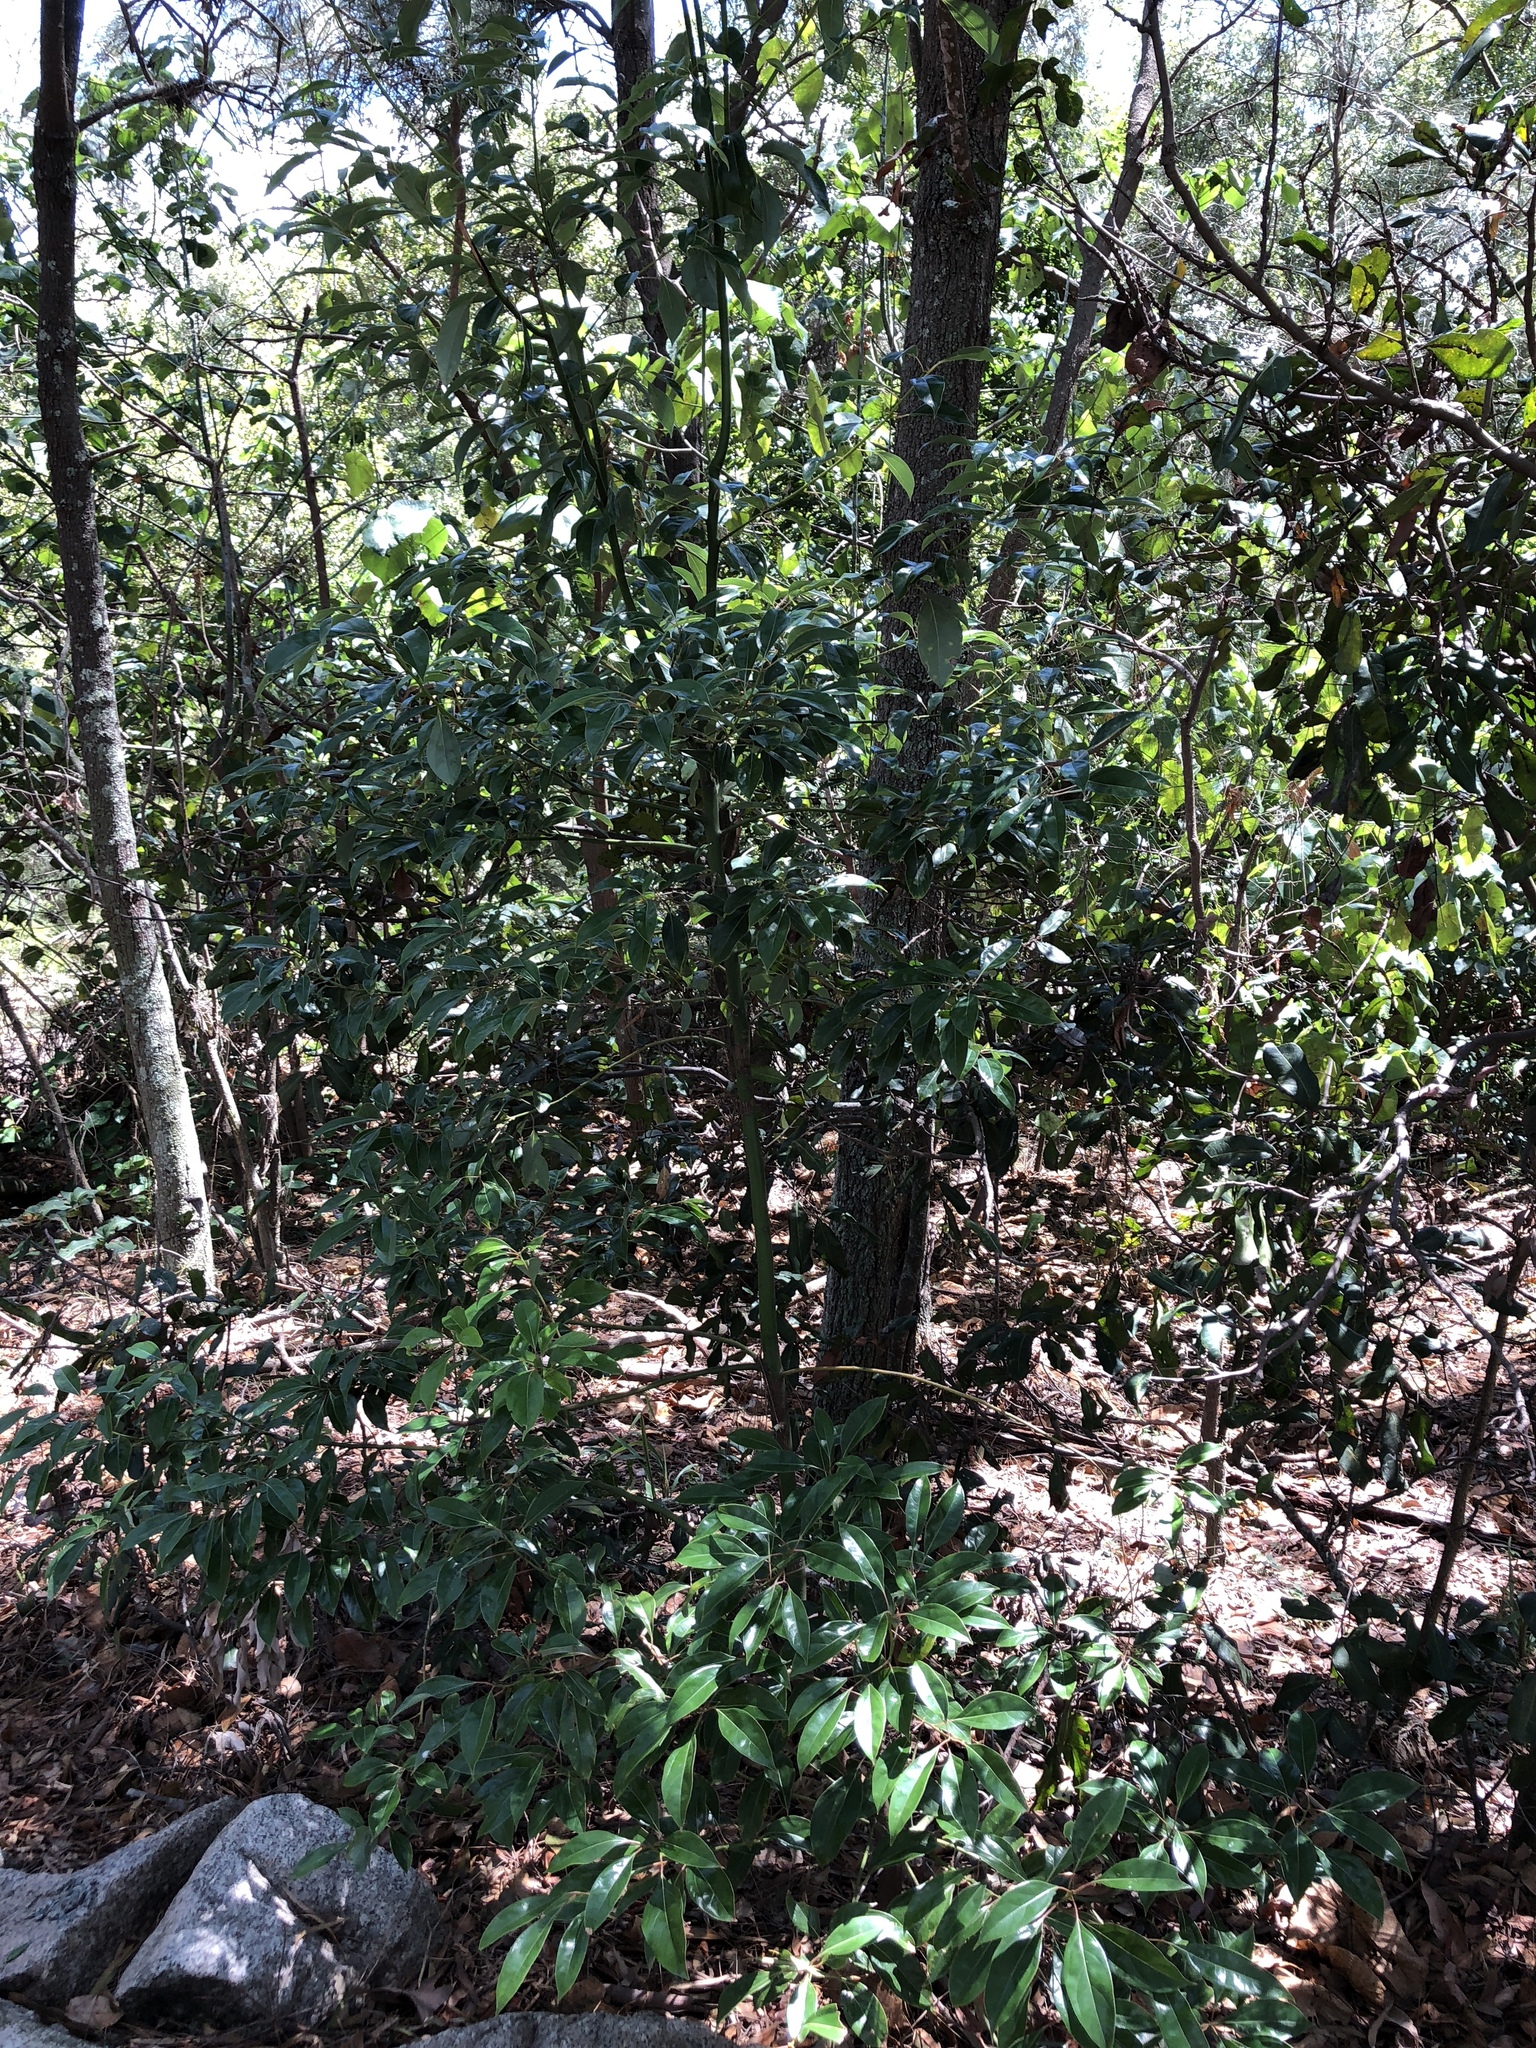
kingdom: Plantae
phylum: Tracheophyta
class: Magnoliopsida
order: Laurales
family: Lauraceae
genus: Cinnamomum
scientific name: Cinnamomum camphora
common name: Camphortree
